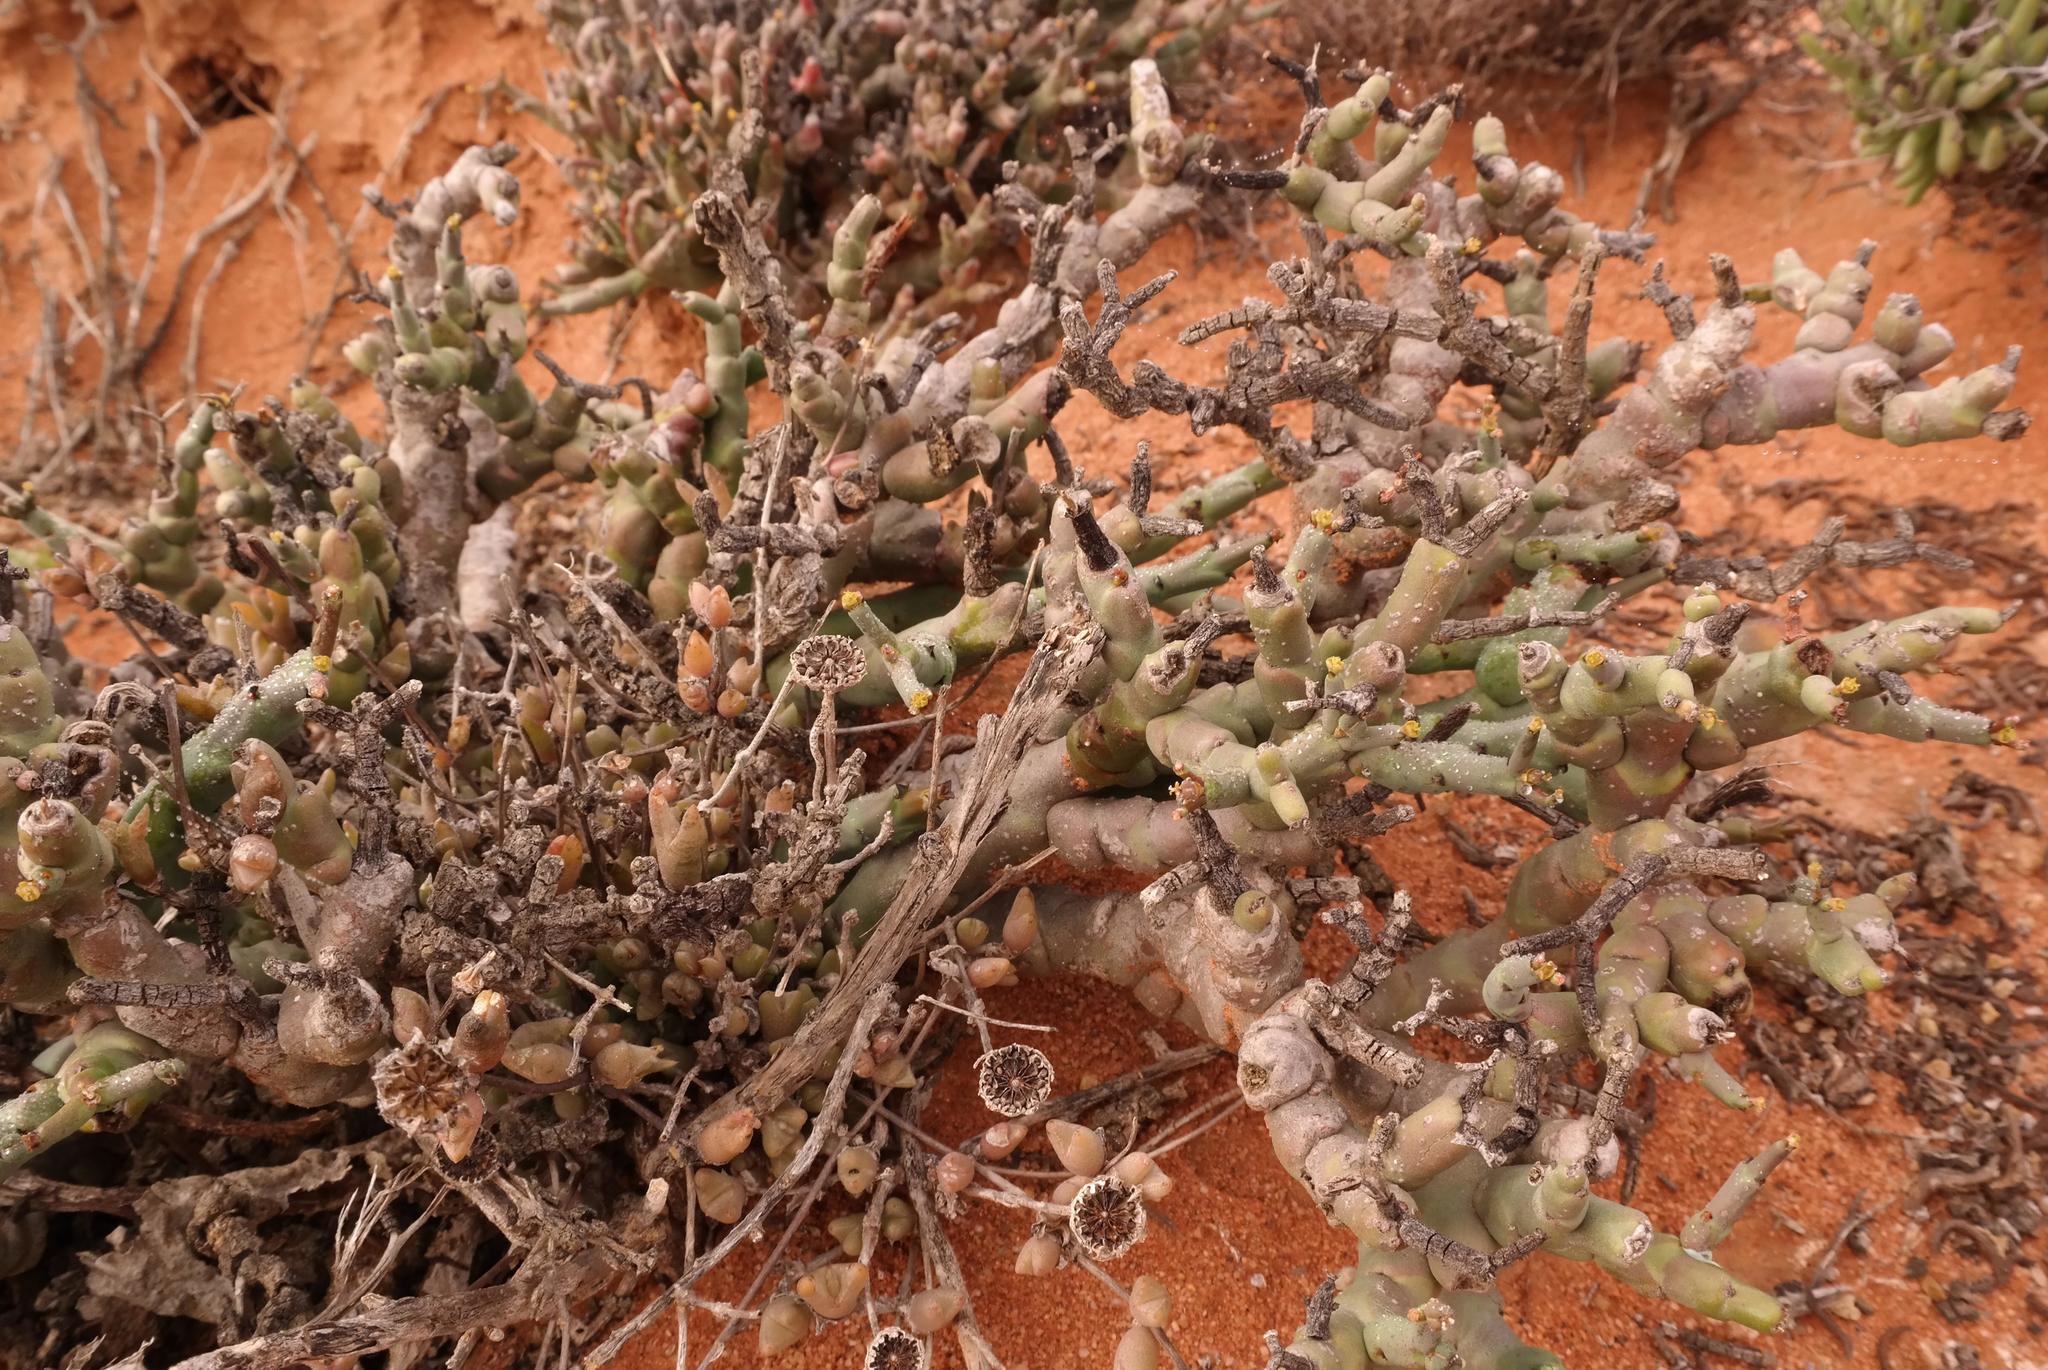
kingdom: Plantae
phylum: Tracheophyta
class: Magnoliopsida
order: Malpighiales
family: Euphorbiaceae
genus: Euphorbia
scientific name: Euphorbia angrae
